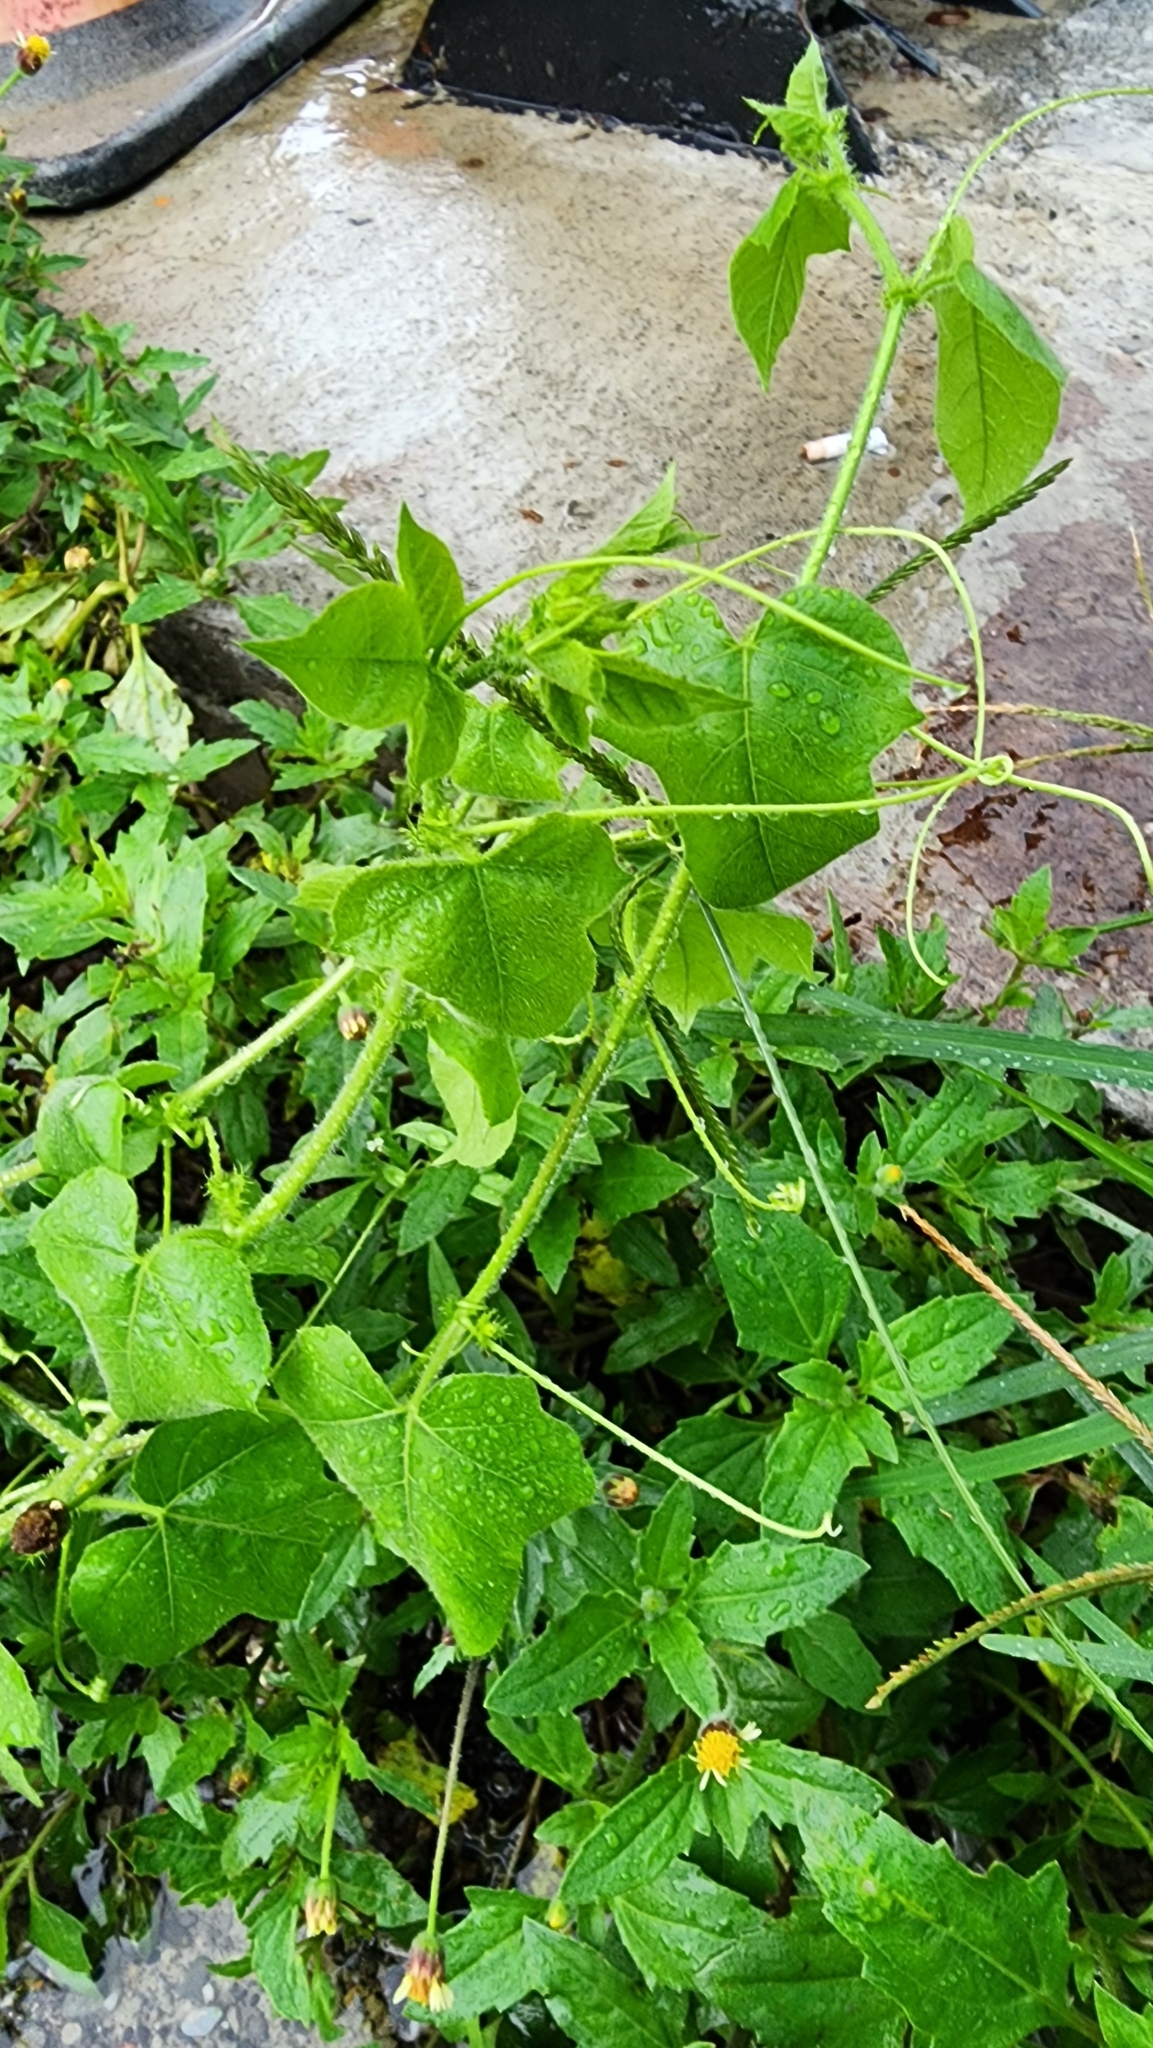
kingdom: Plantae
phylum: Tracheophyta
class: Magnoliopsida
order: Malpighiales
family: Passifloraceae
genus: Passiflora
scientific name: Passiflora vesicaria
